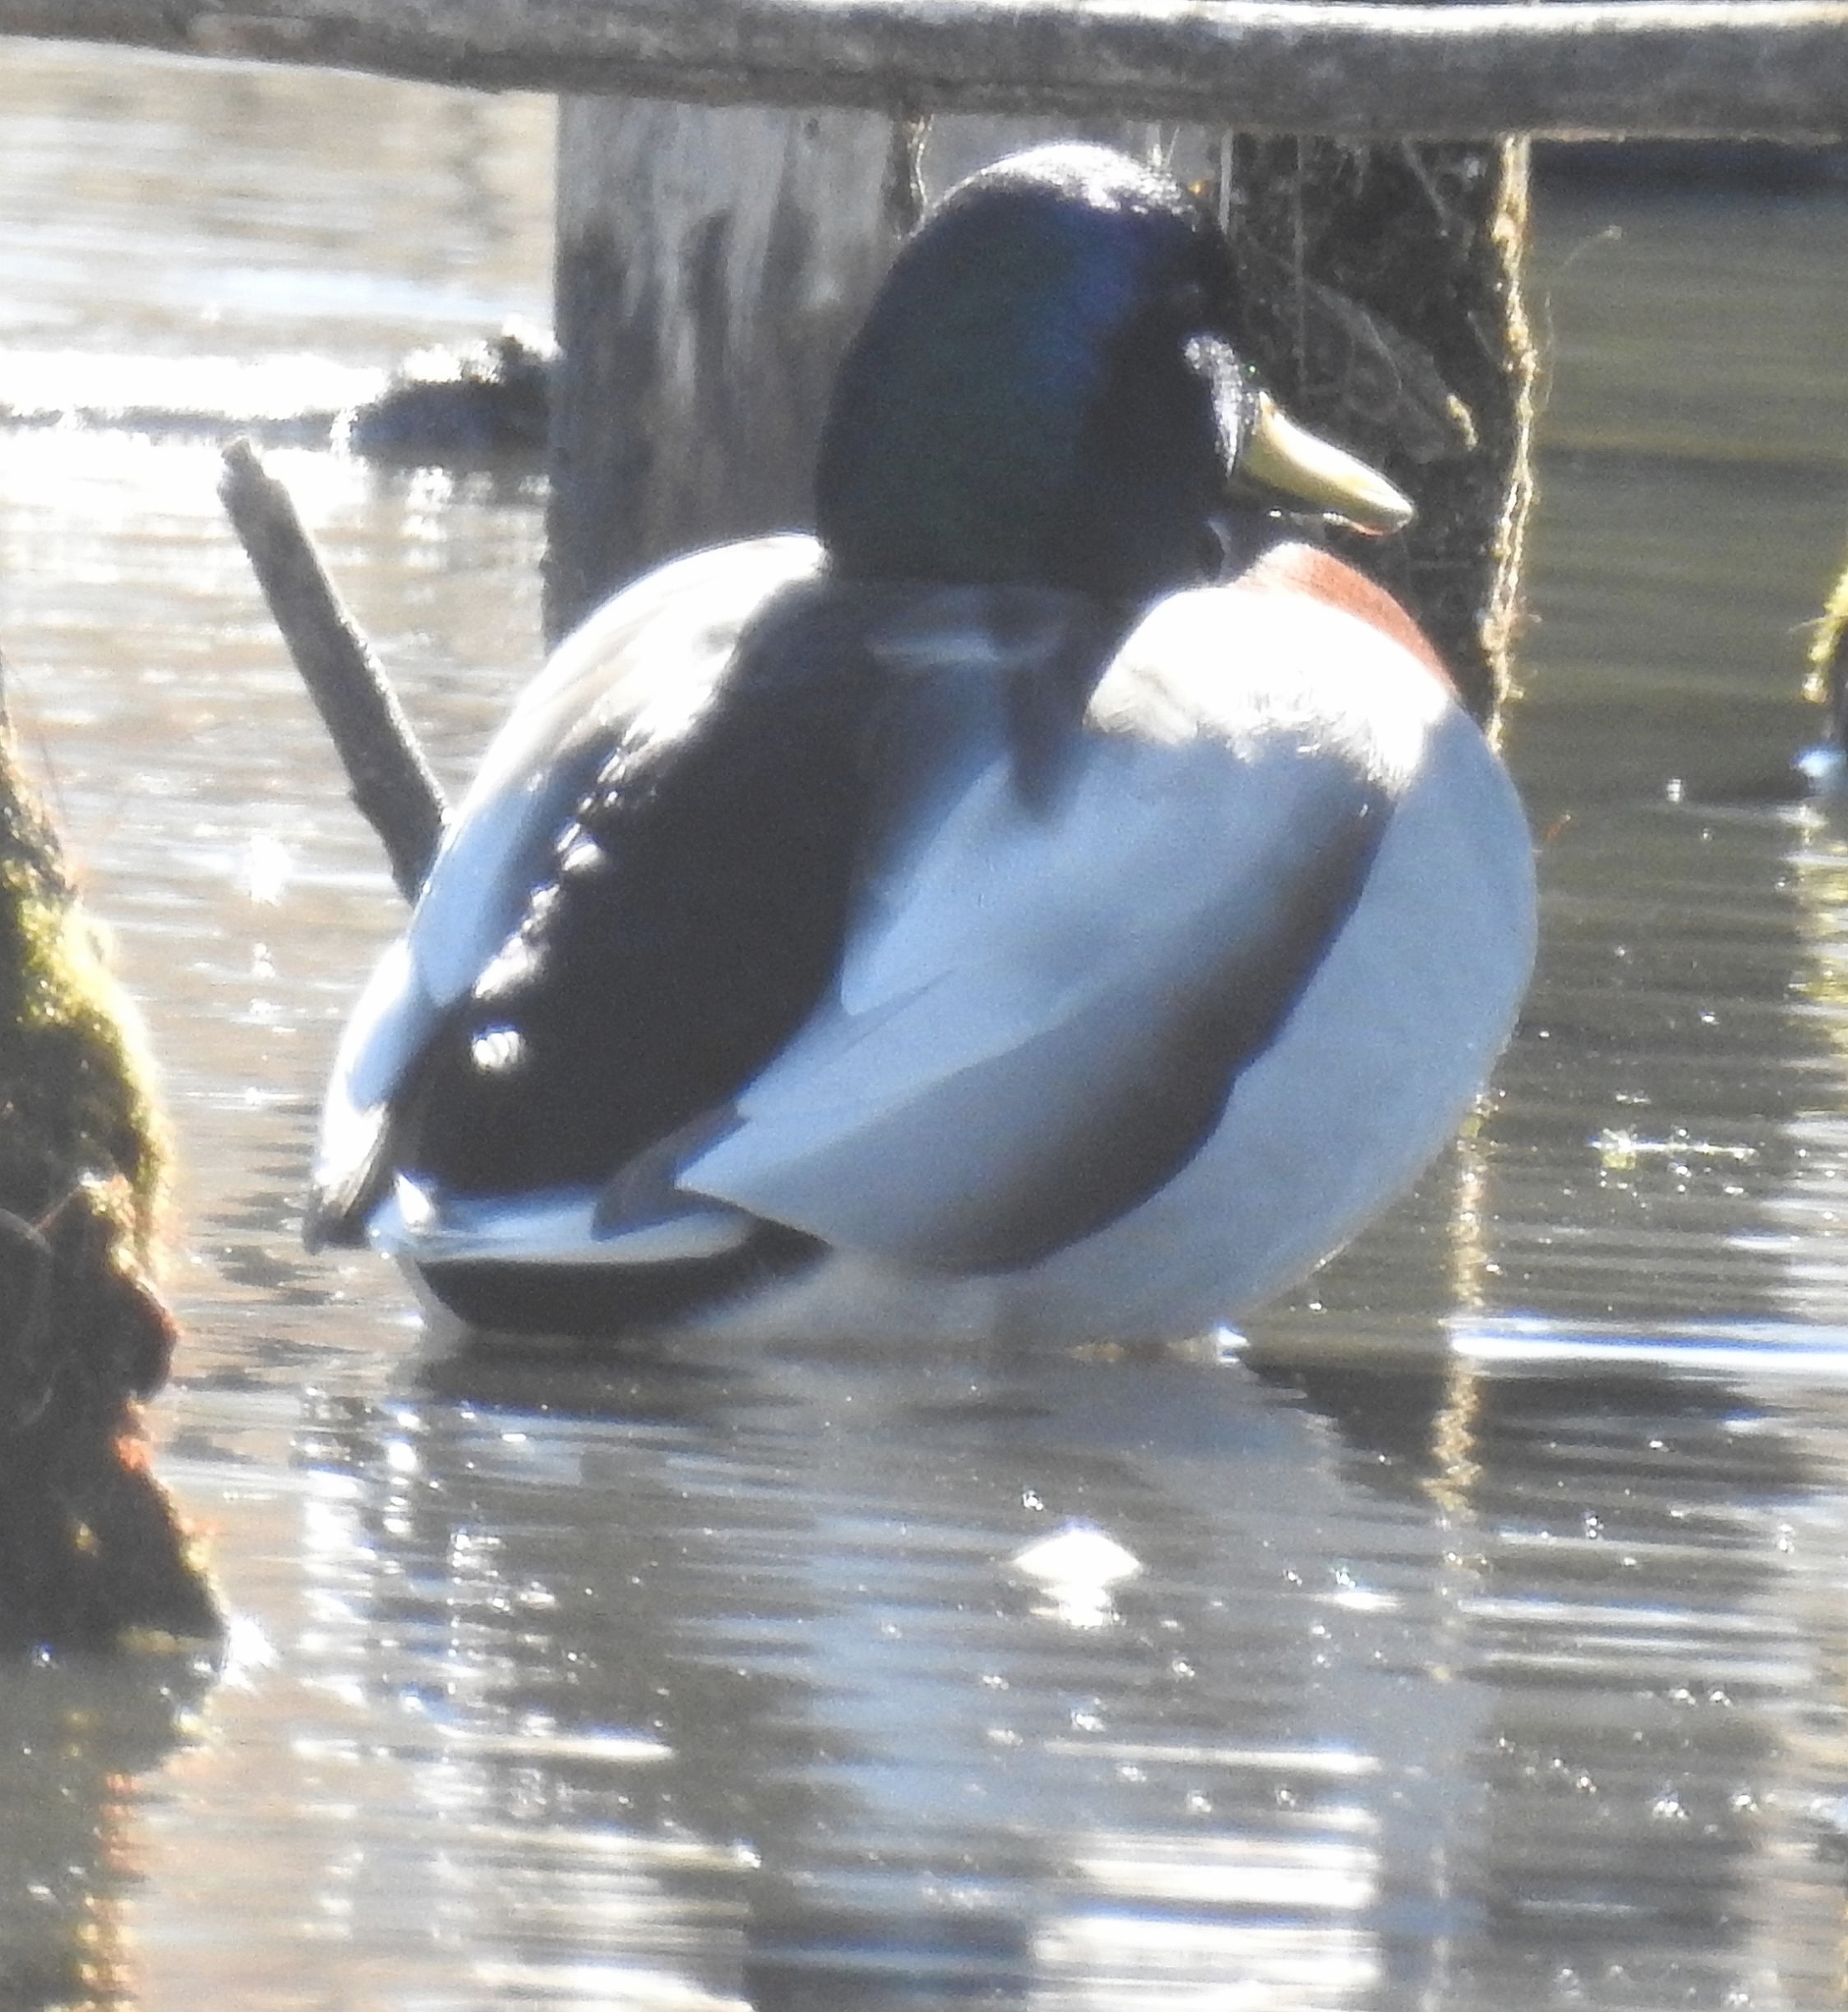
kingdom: Animalia
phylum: Chordata
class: Aves
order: Anseriformes
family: Anatidae
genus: Anas
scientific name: Anas platyrhynchos
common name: Mallard
